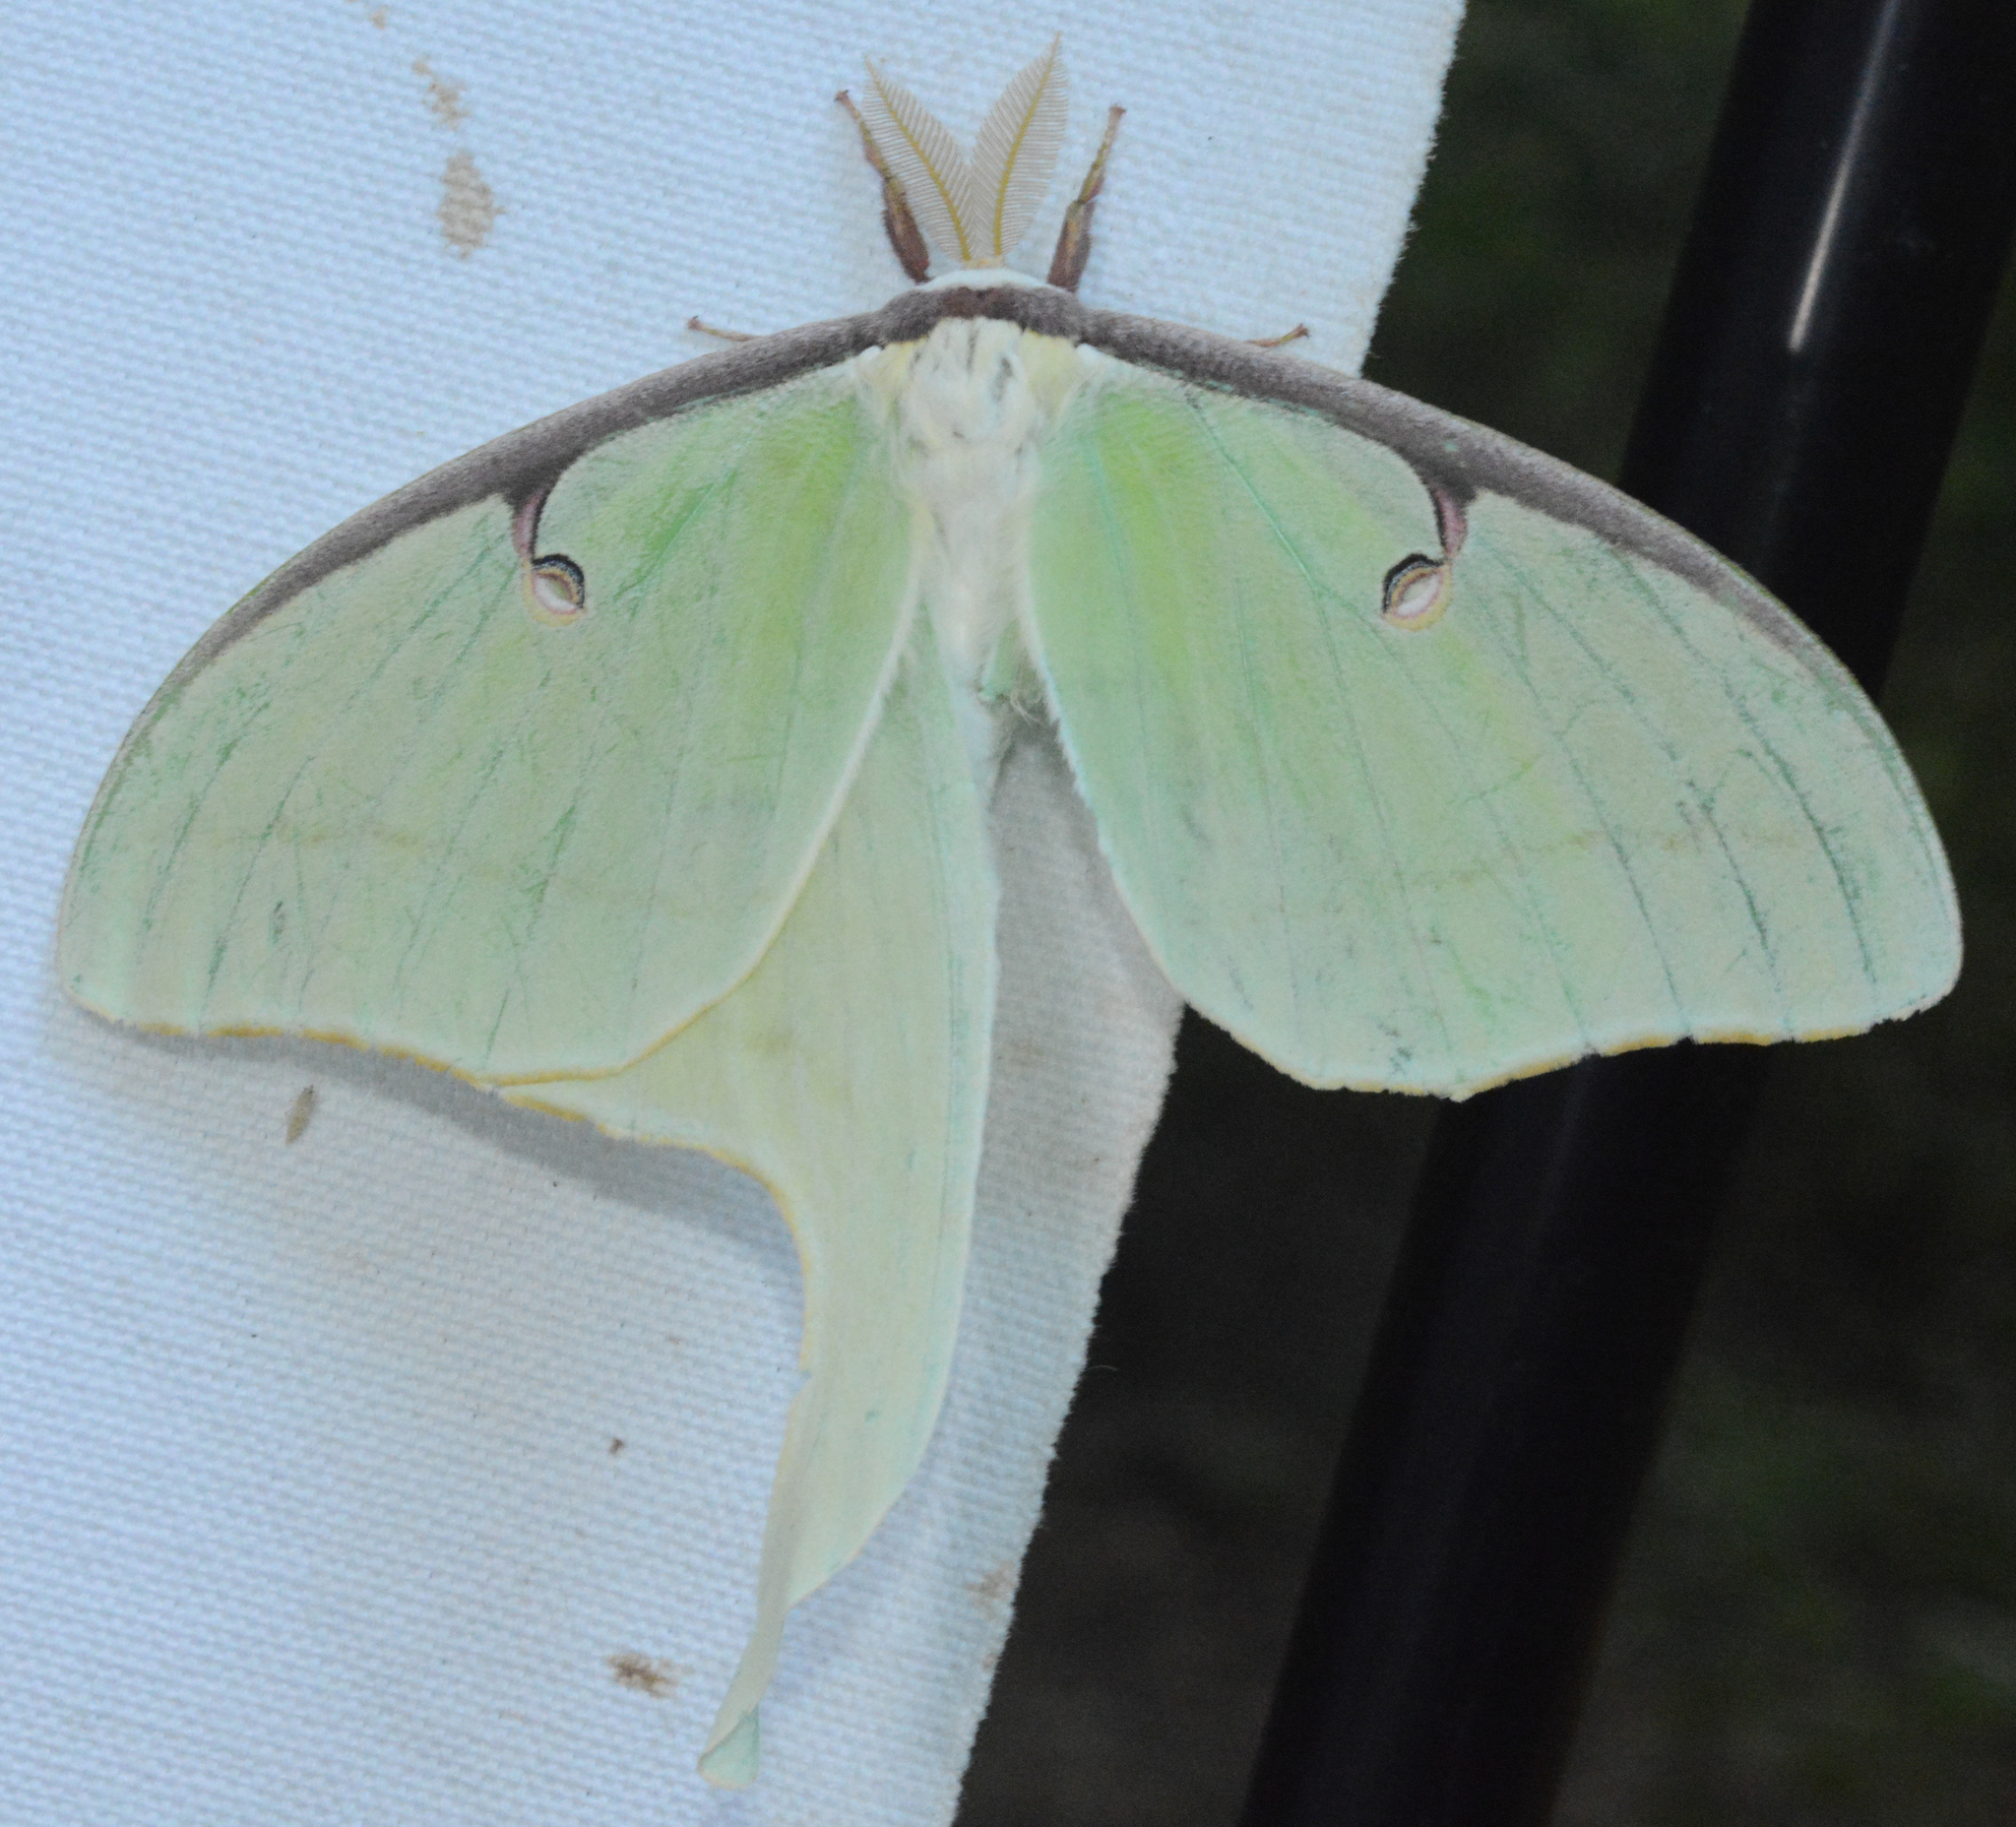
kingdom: Animalia
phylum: Arthropoda
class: Insecta
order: Lepidoptera
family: Saturniidae
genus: Actias
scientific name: Actias luna
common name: Luna moth
